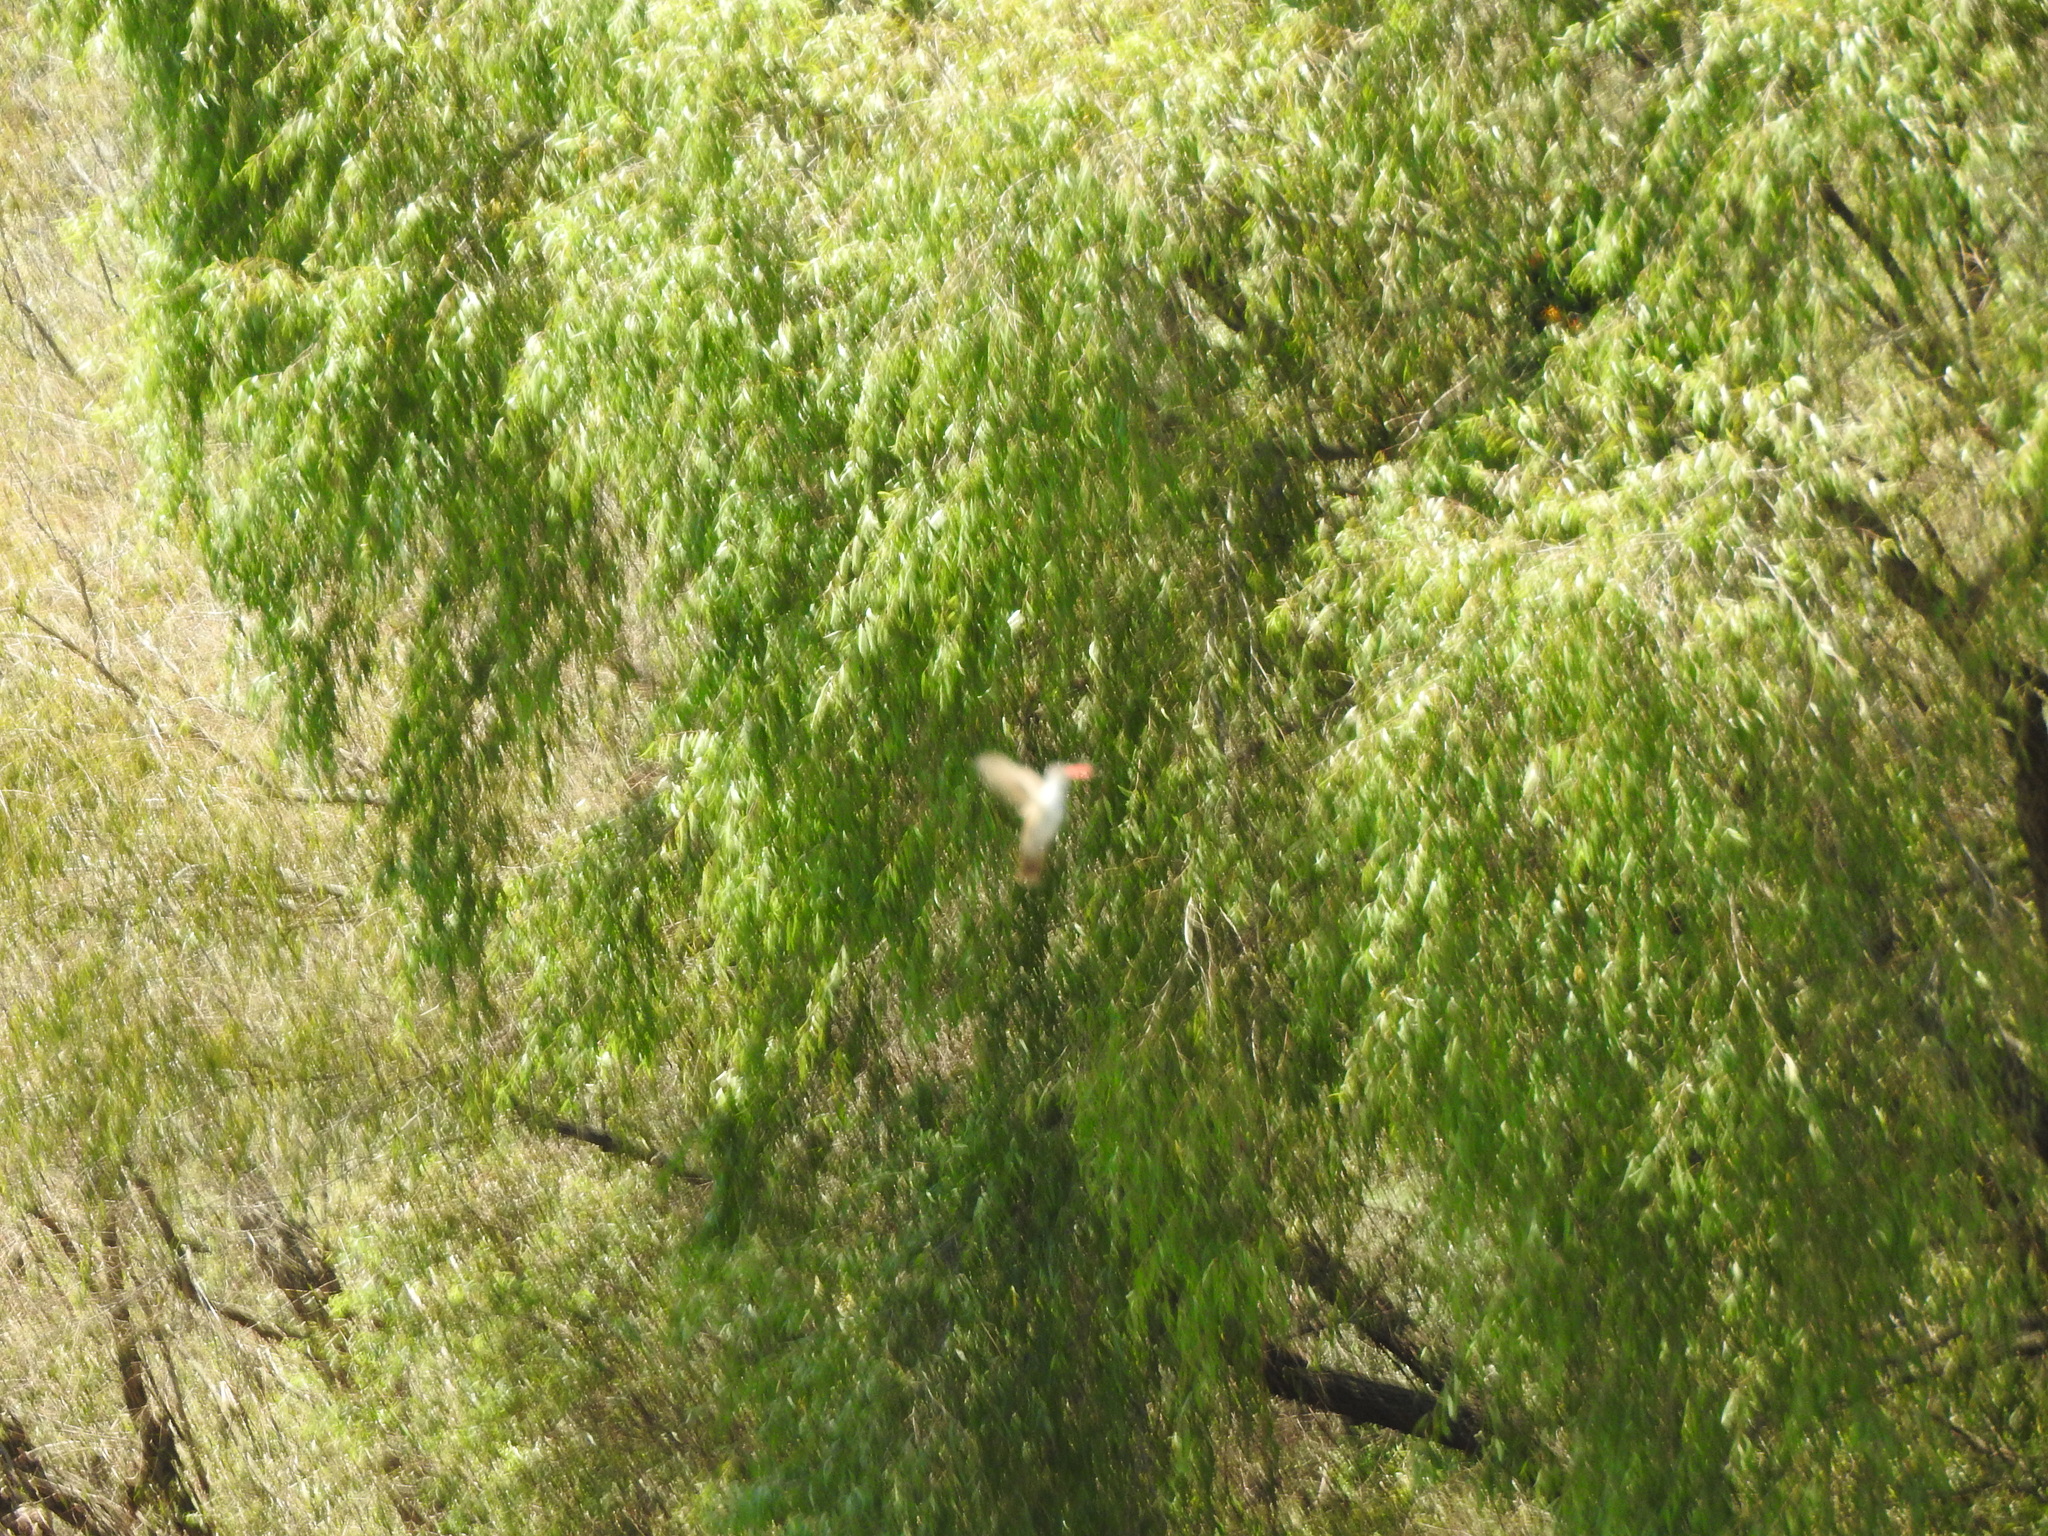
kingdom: Animalia
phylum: Chordata
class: Aves
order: Apodiformes
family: Trochilidae
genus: Leucolia
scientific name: Leucolia violiceps
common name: Violet-crowned hummingbird
